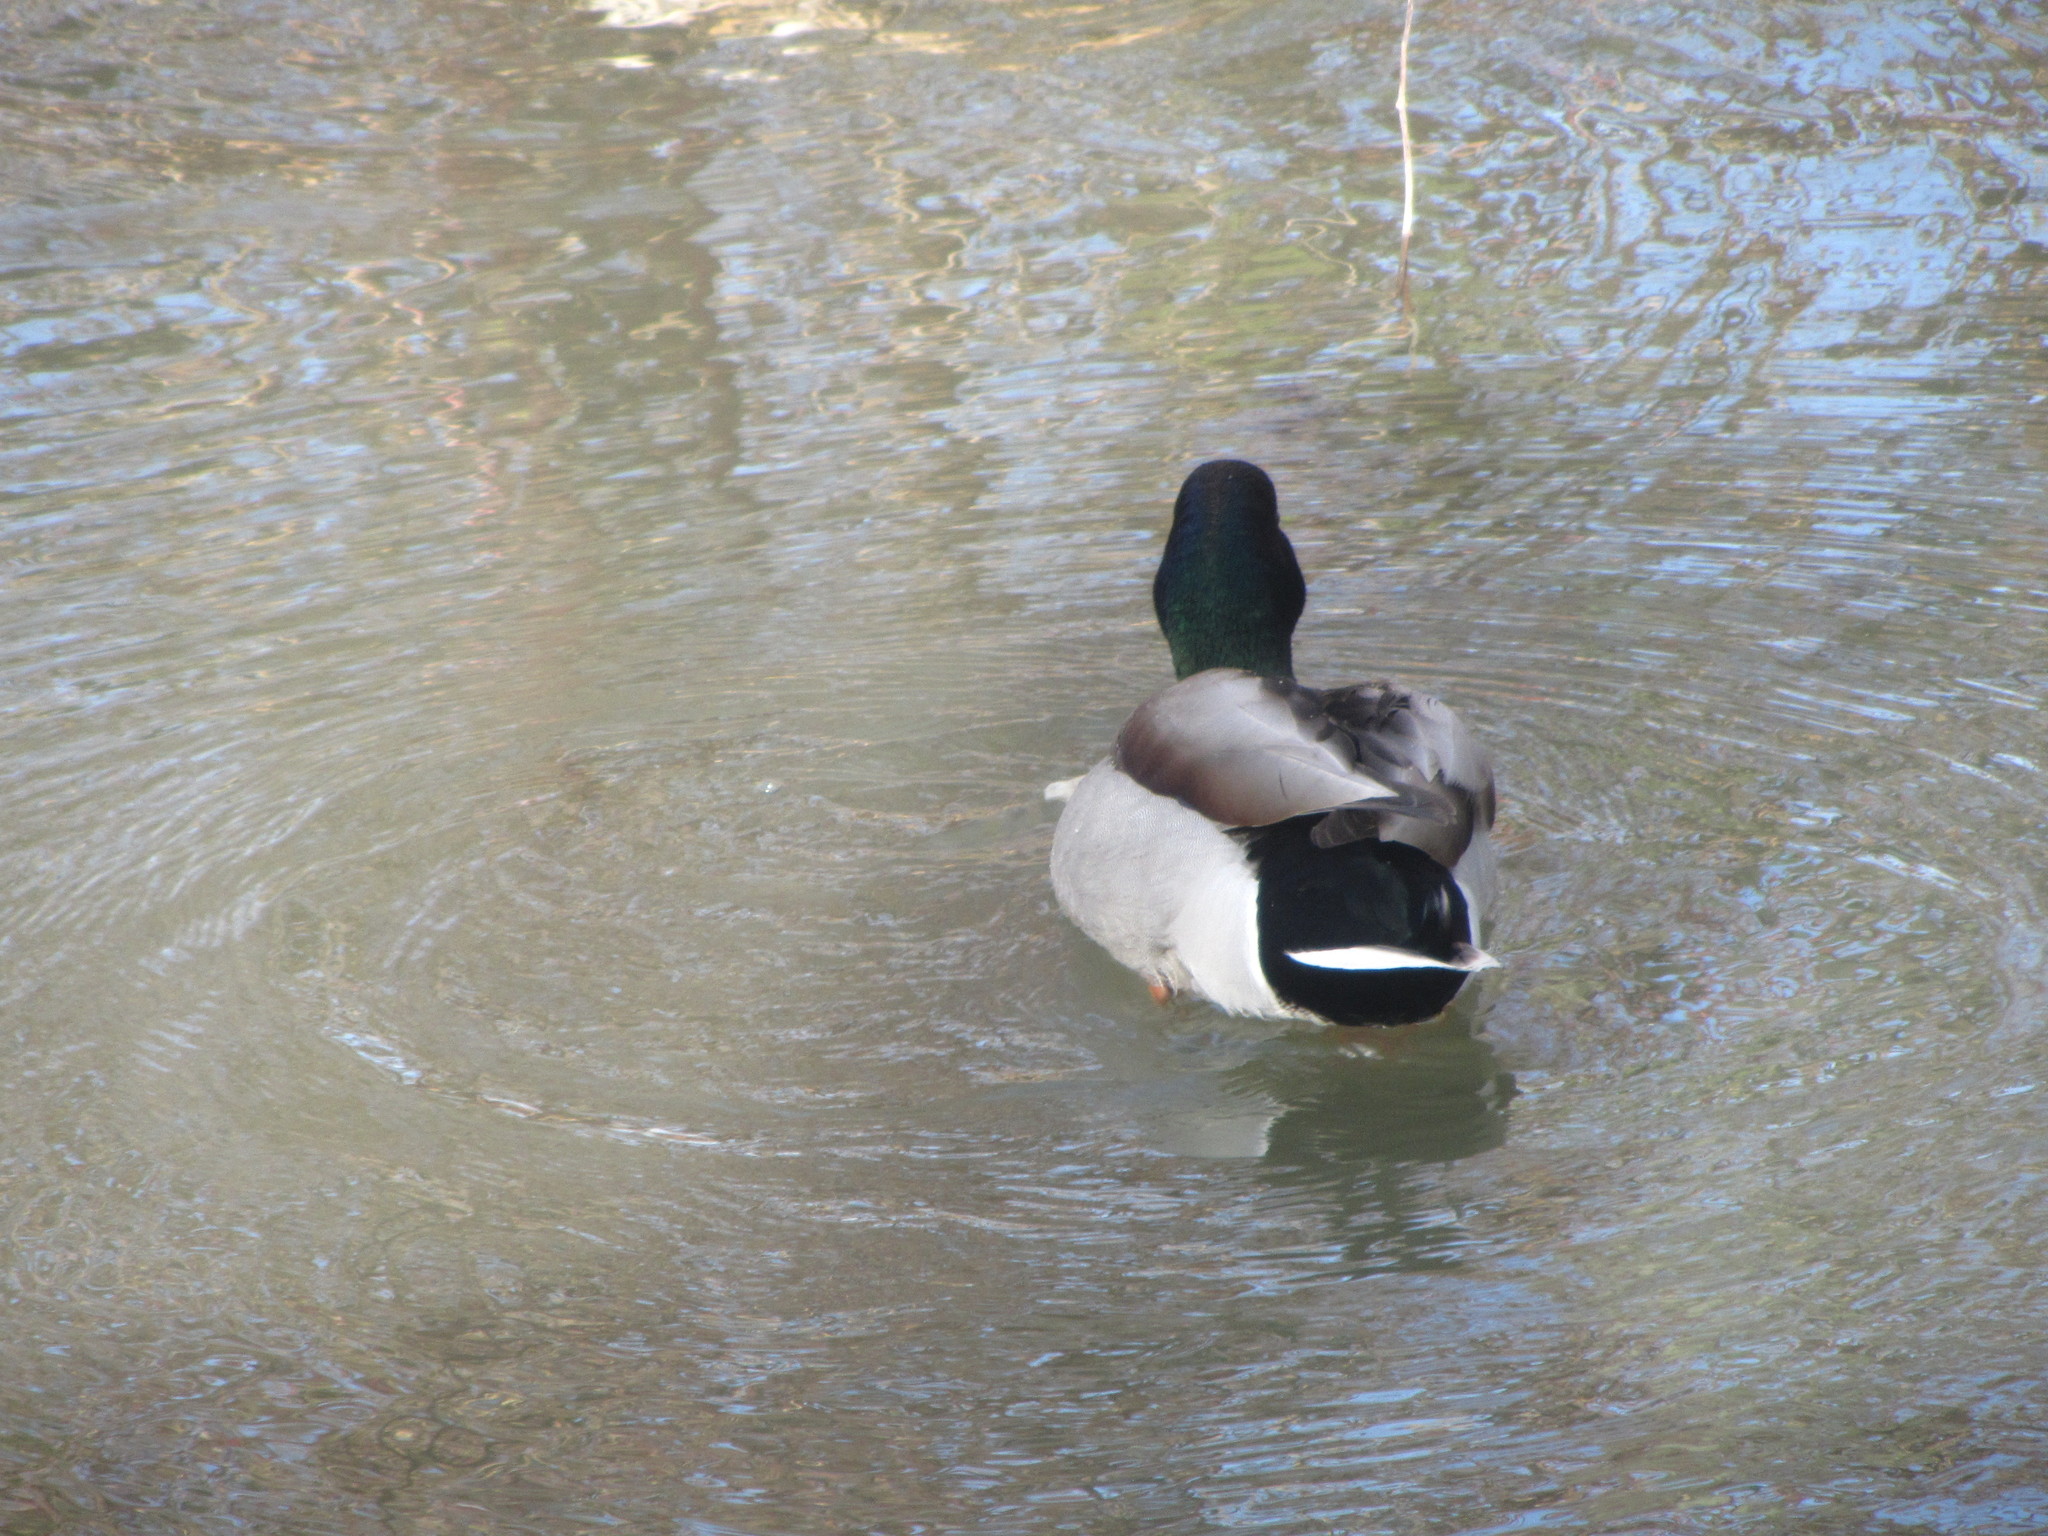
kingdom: Animalia
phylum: Chordata
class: Aves
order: Anseriformes
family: Anatidae
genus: Anas
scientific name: Anas platyrhynchos
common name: Mallard
